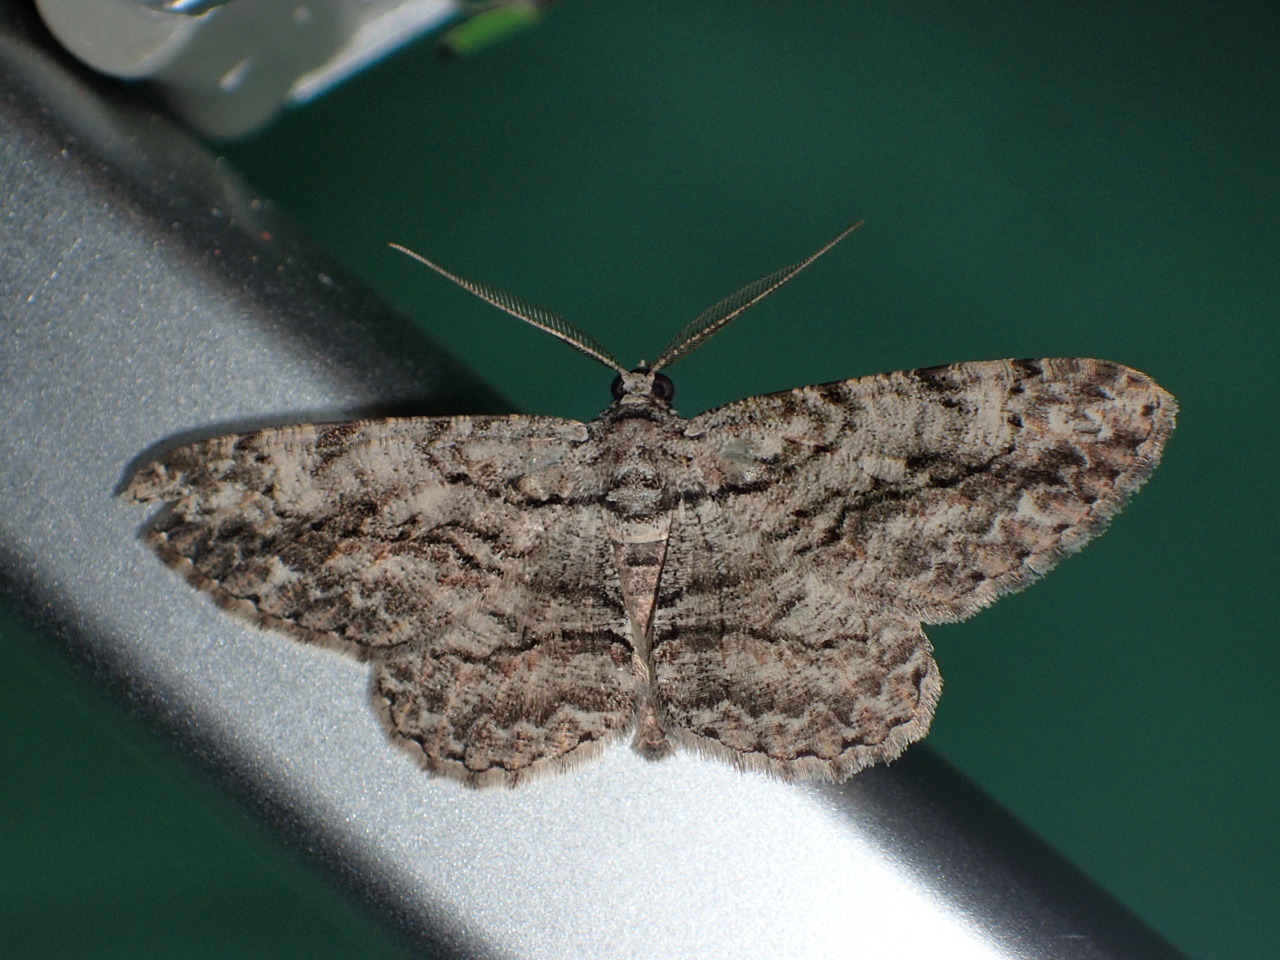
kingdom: Animalia
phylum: Arthropoda
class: Insecta
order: Lepidoptera
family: Geometridae
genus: Anavitrinella
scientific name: Anavitrinella pampinaria
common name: Common gray
